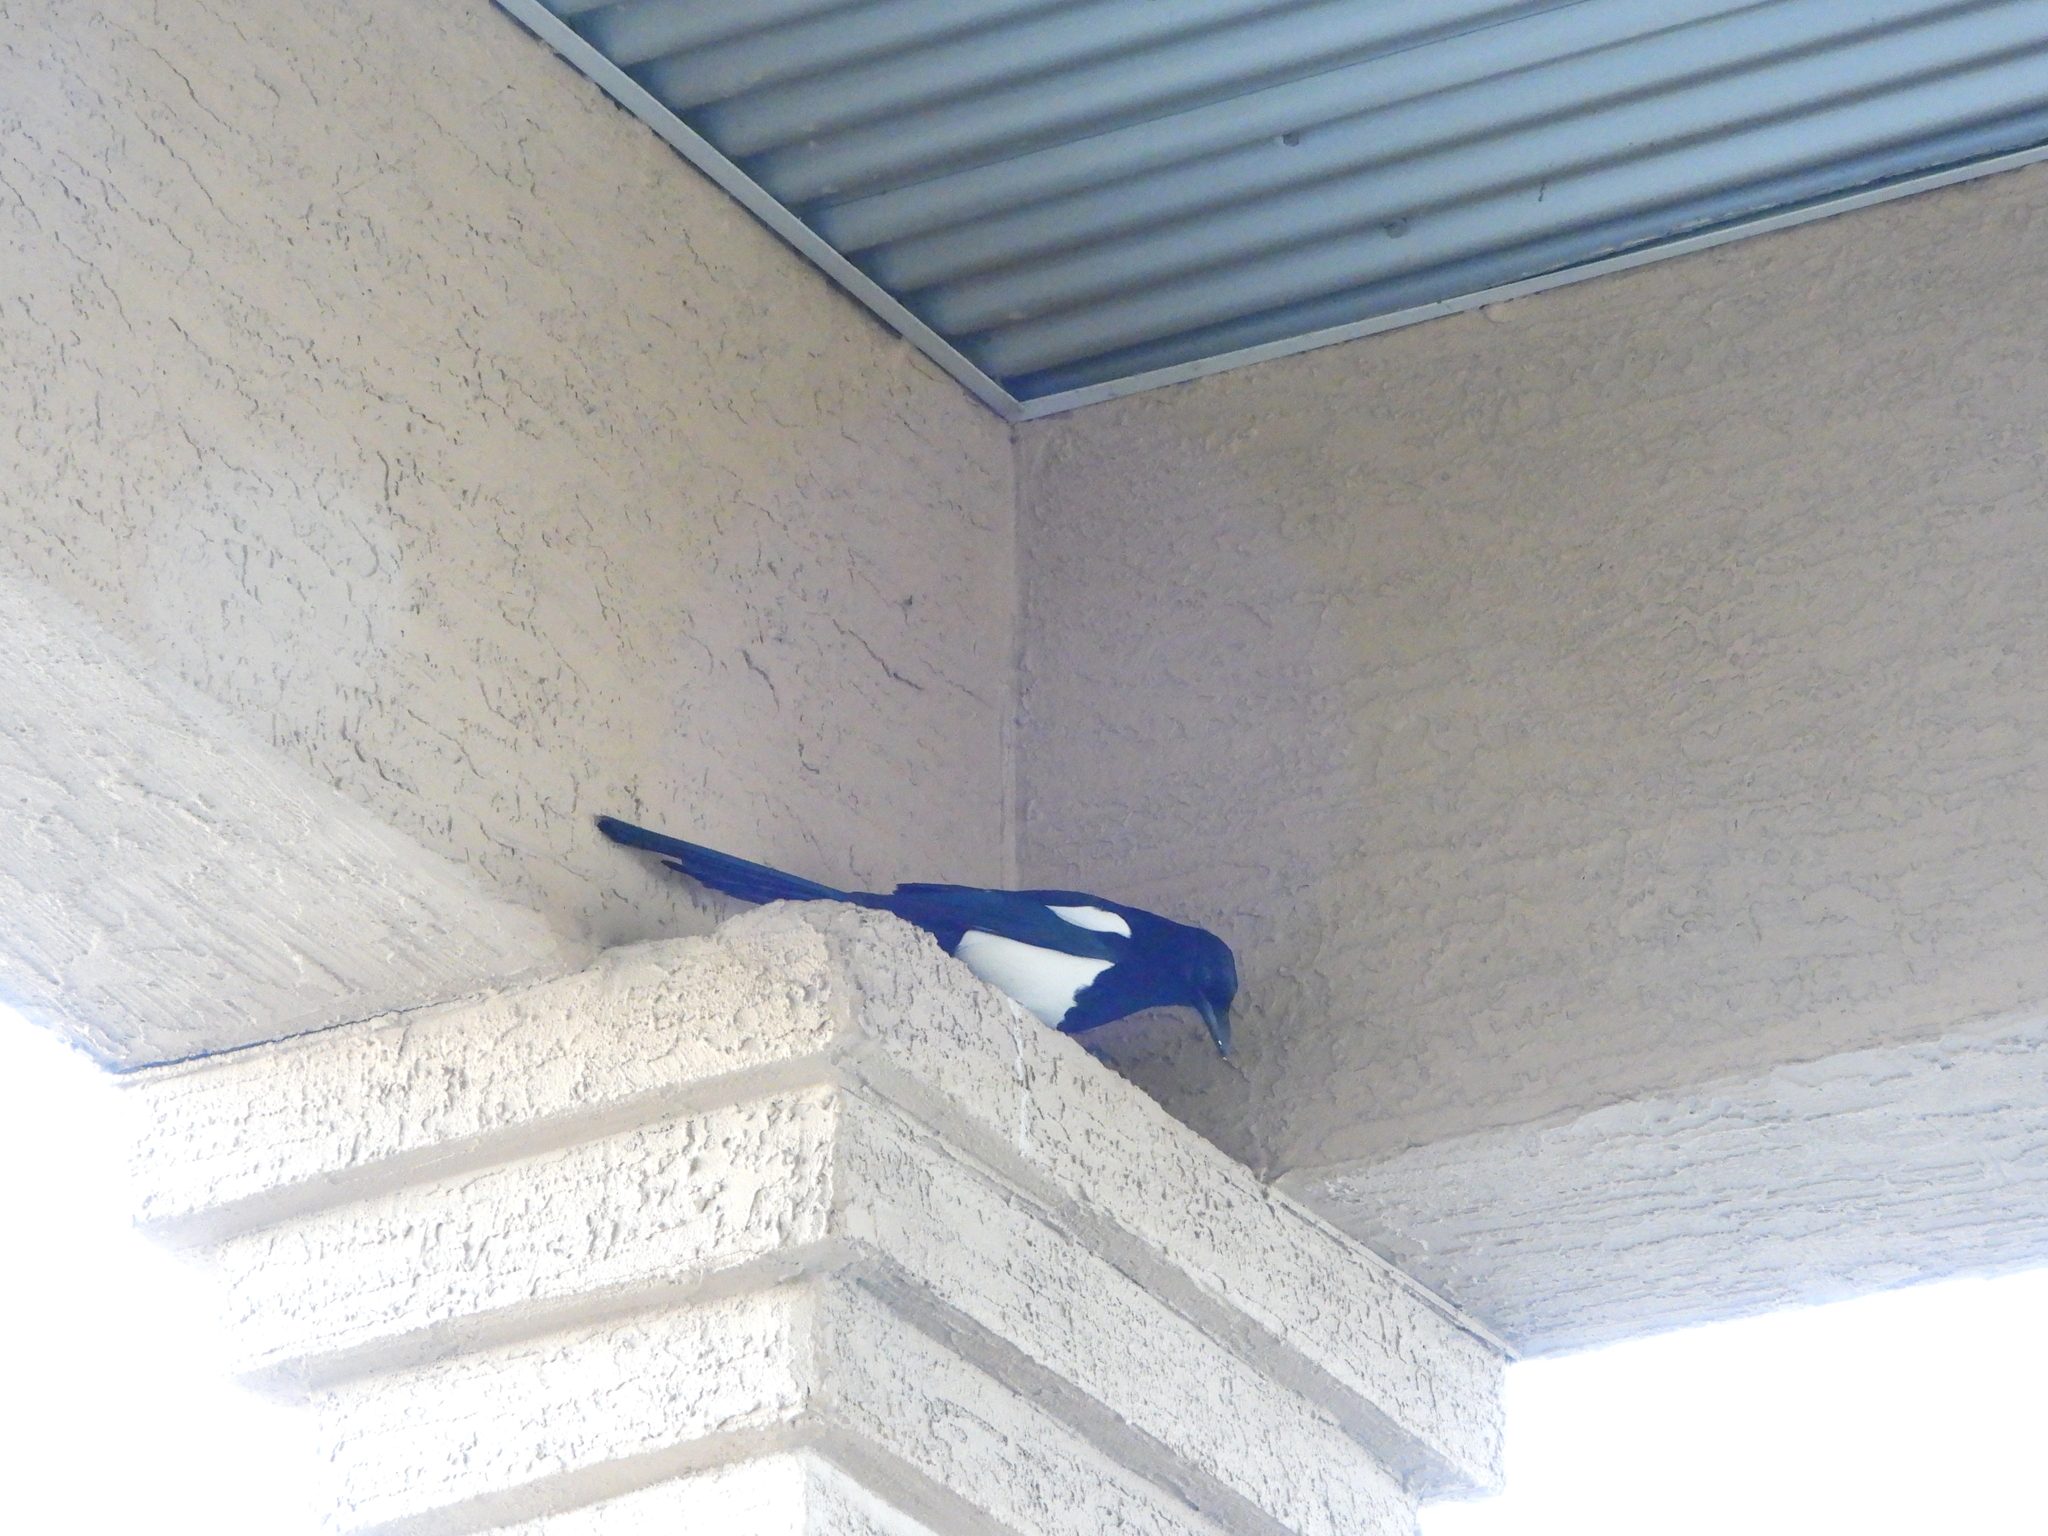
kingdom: Animalia
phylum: Chordata
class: Aves
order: Passeriformes
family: Corvidae
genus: Pica
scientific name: Pica hudsonia
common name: Black-billed magpie
